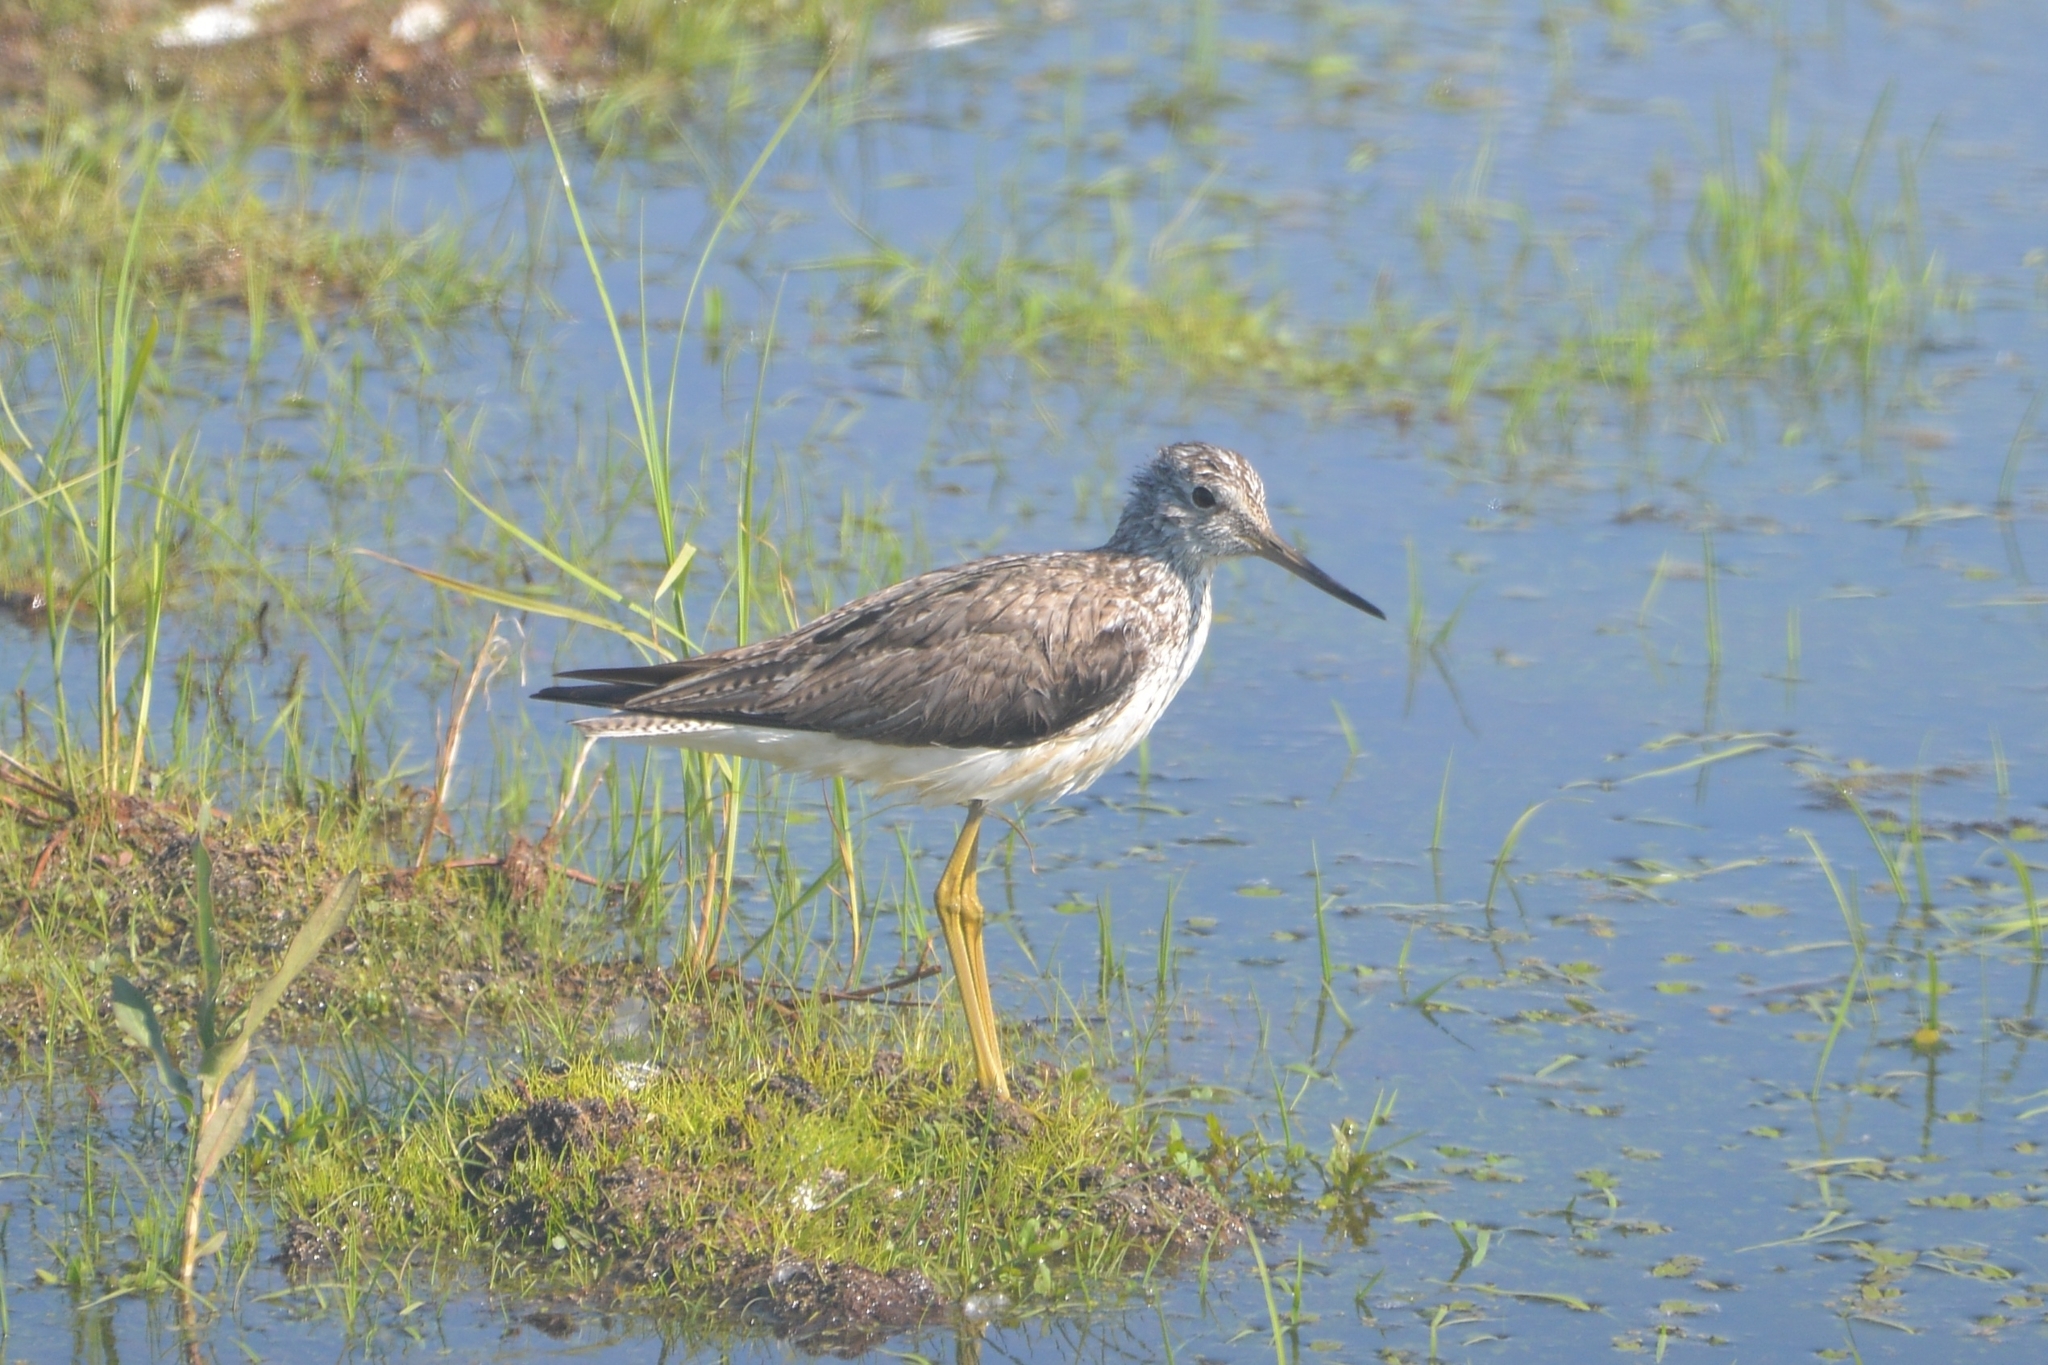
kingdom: Animalia
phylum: Chordata
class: Aves
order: Charadriiformes
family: Scolopacidae
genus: Tringa
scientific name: Tringa nebularia
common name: Common greenshank
